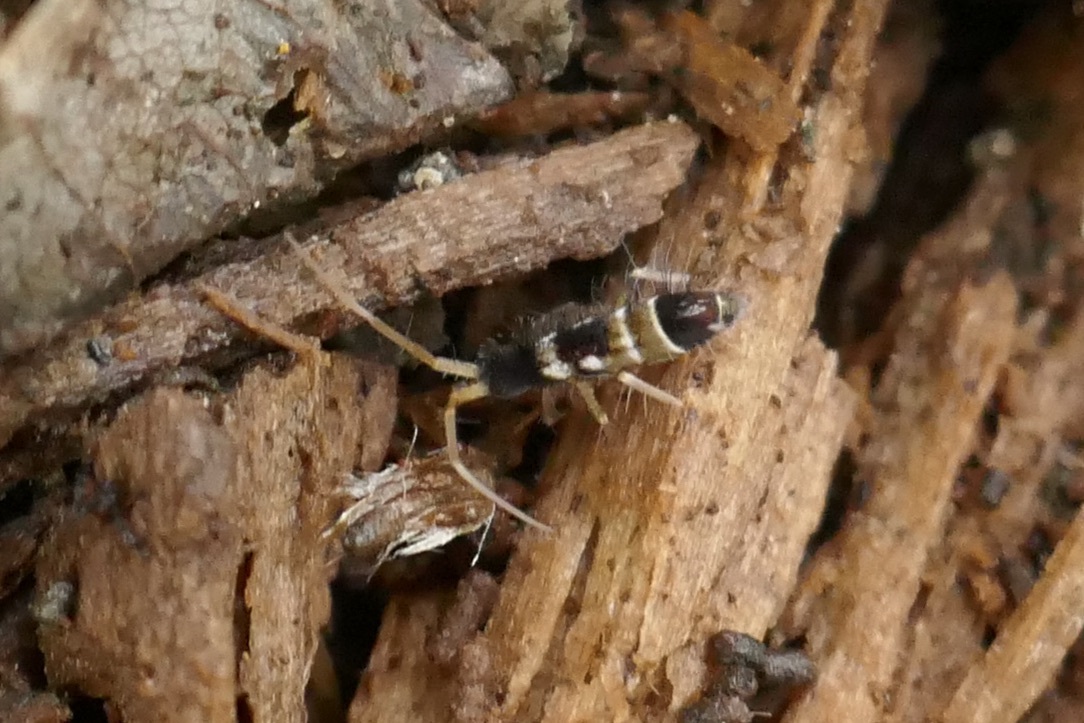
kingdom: Animalia
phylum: Arthropoda
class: Collembola
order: Entomobryomorpha
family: Entomobryidae
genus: Entomobrya
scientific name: Entomobrya nivalis
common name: Cosmopolitan springtail
